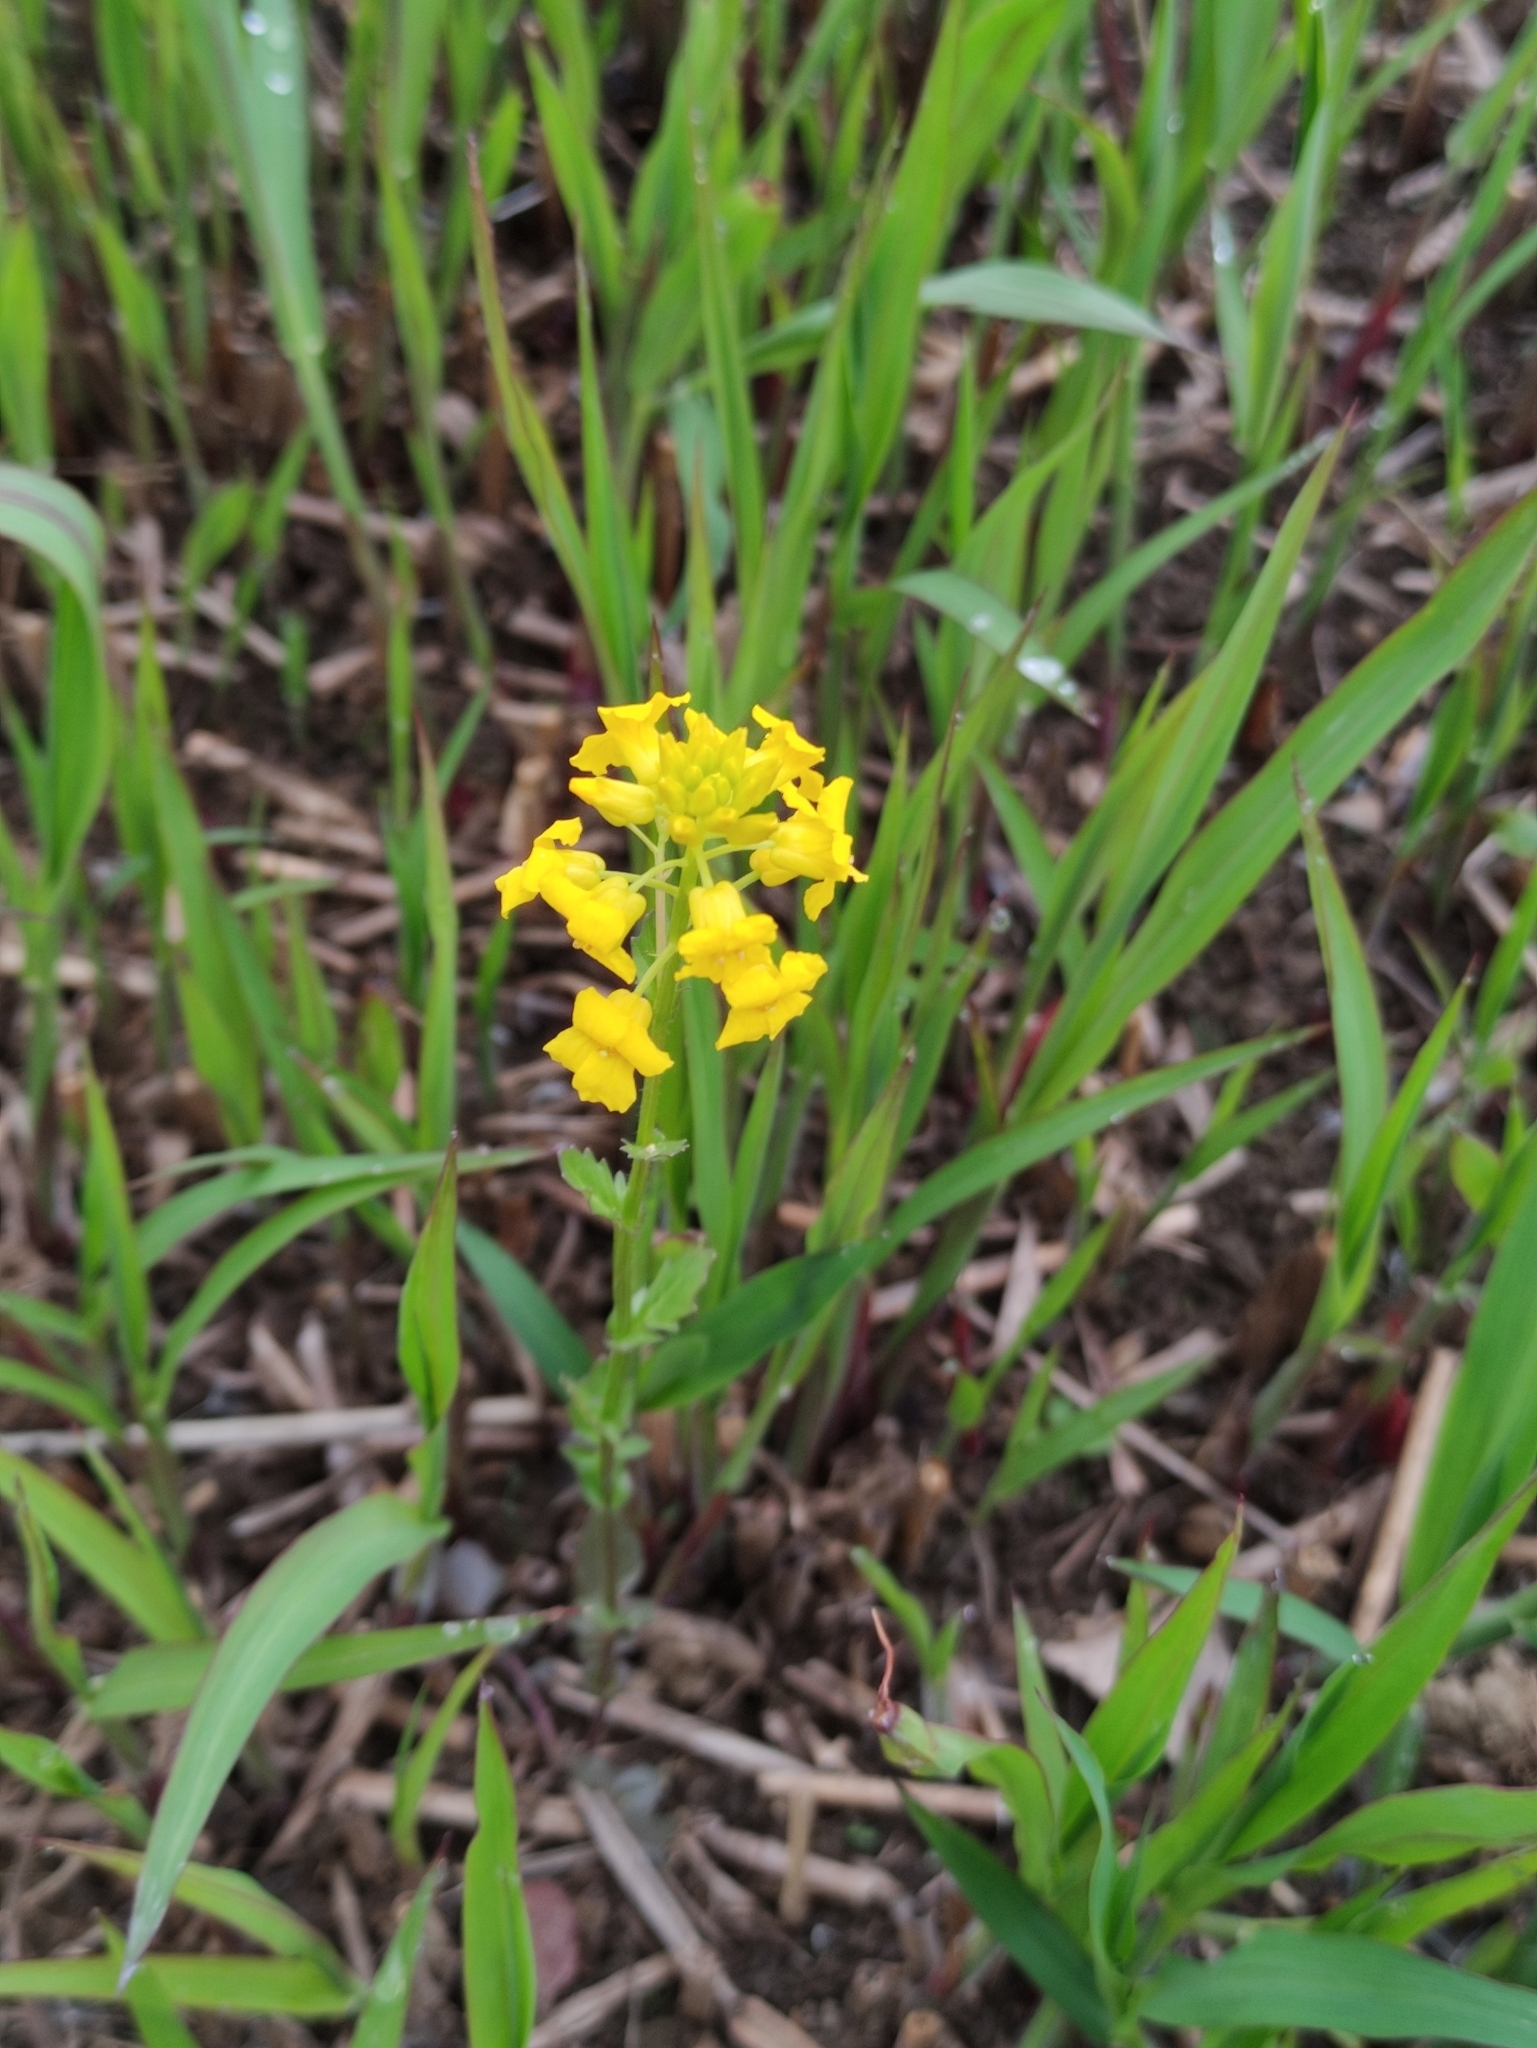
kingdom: Plantae
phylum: Tracheophyta
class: Magnoliopsida
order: Brassicales
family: Brassicaceae
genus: Barbarea
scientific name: Barbarea vulgaris
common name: Cressy-greens
